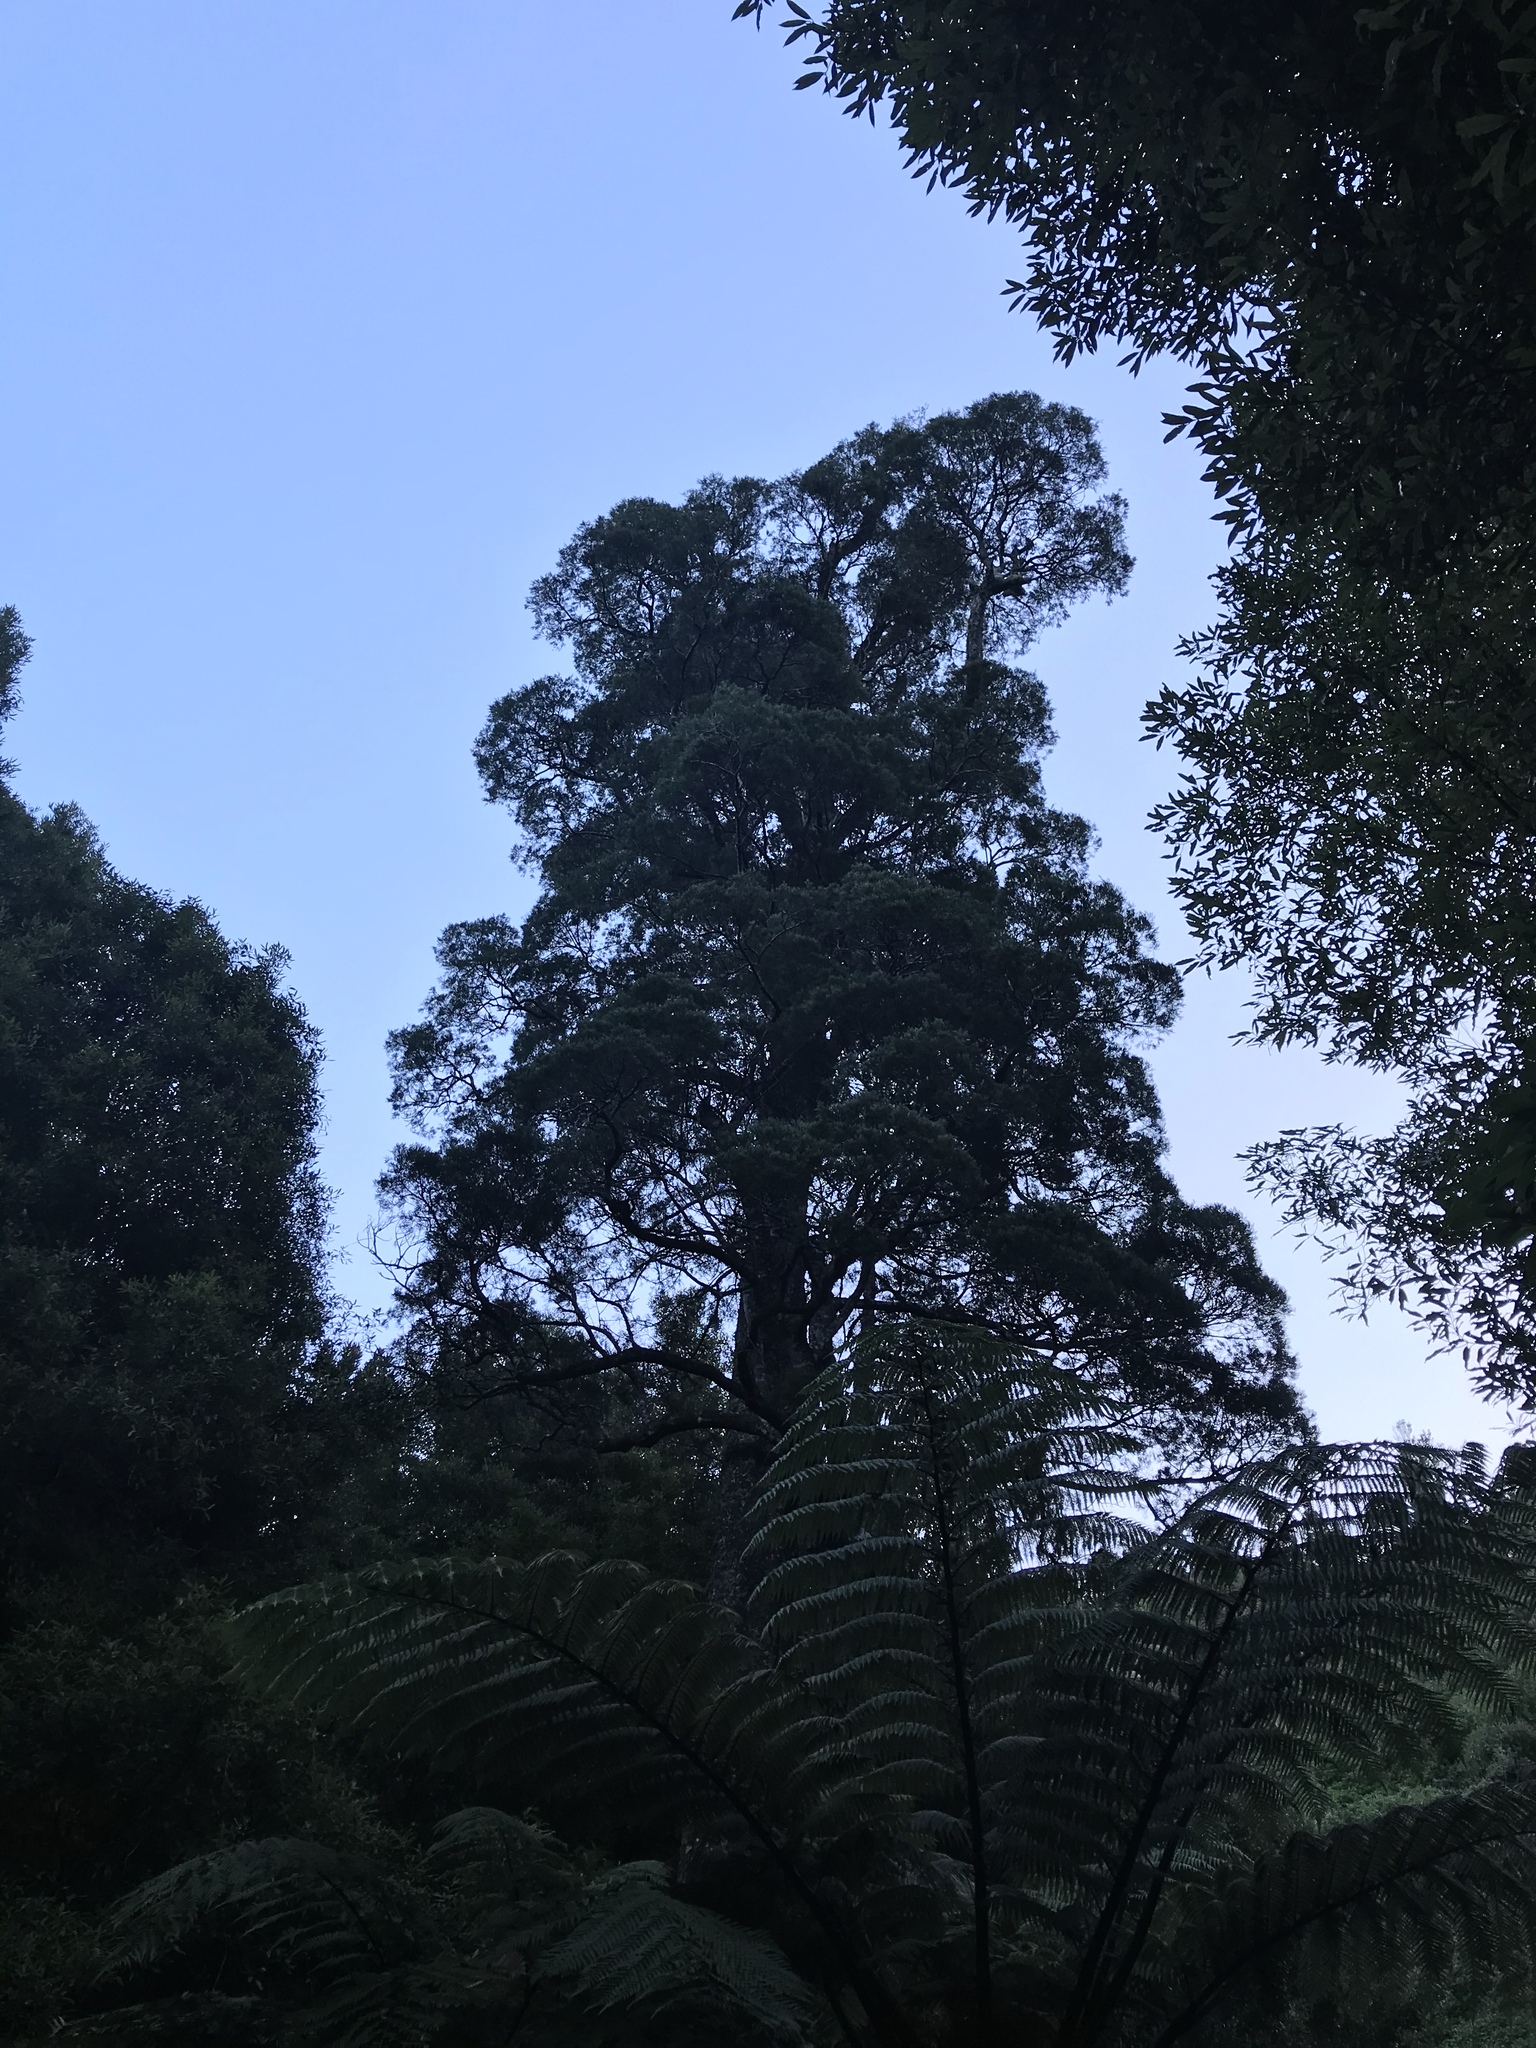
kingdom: Plantae
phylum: Tracheophyta
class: Pinopsida
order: Pinales
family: Podocarpaceae
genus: Dacrycarpus
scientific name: Dacrycarpus dacrydioides
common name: White pine
